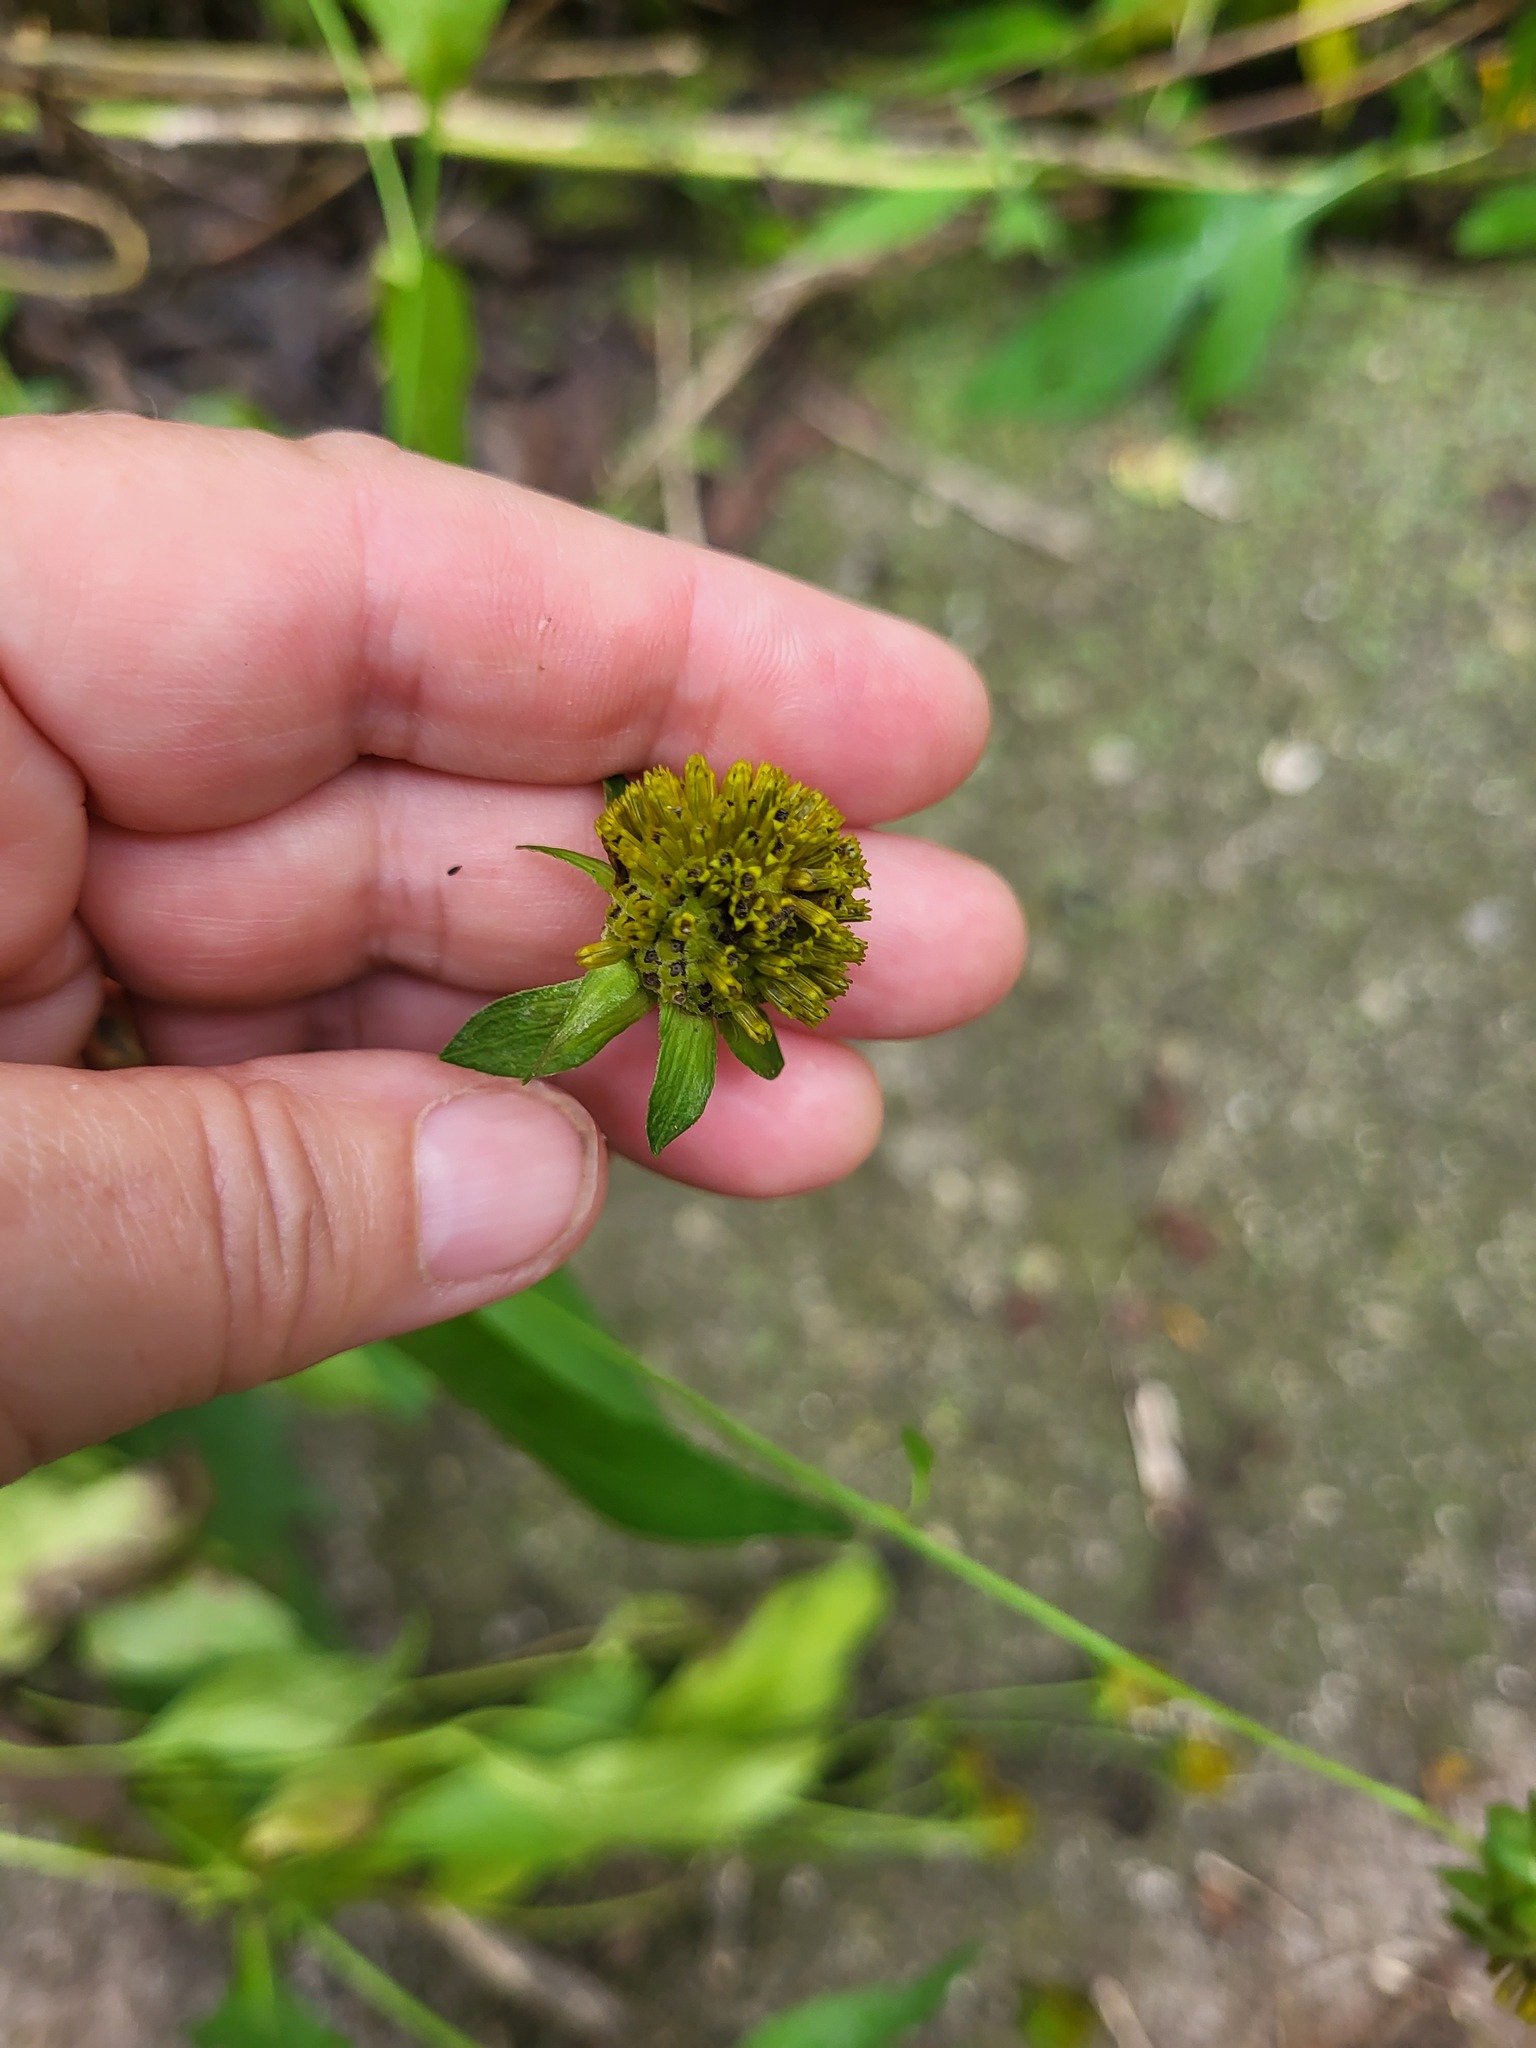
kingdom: Plantae
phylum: Tracheophyta
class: Magnoliopsida
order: Asterales
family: Asteraceae
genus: Rudbeckia
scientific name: Rudbeckia laciniata
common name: Coneflower
